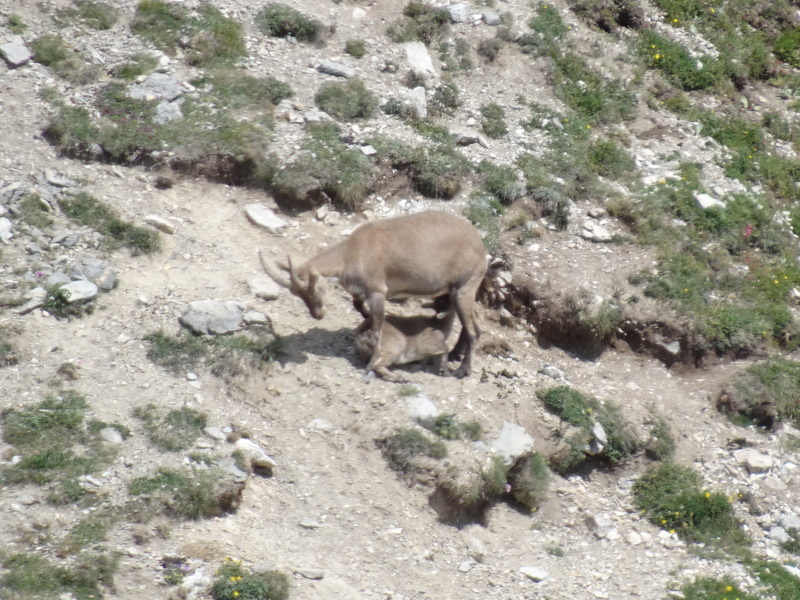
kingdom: Animalia
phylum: Chordata
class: Mammalia
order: Artiodactyla
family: Bovidae
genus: Capra
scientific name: Capra ibex
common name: Alpine ibex
